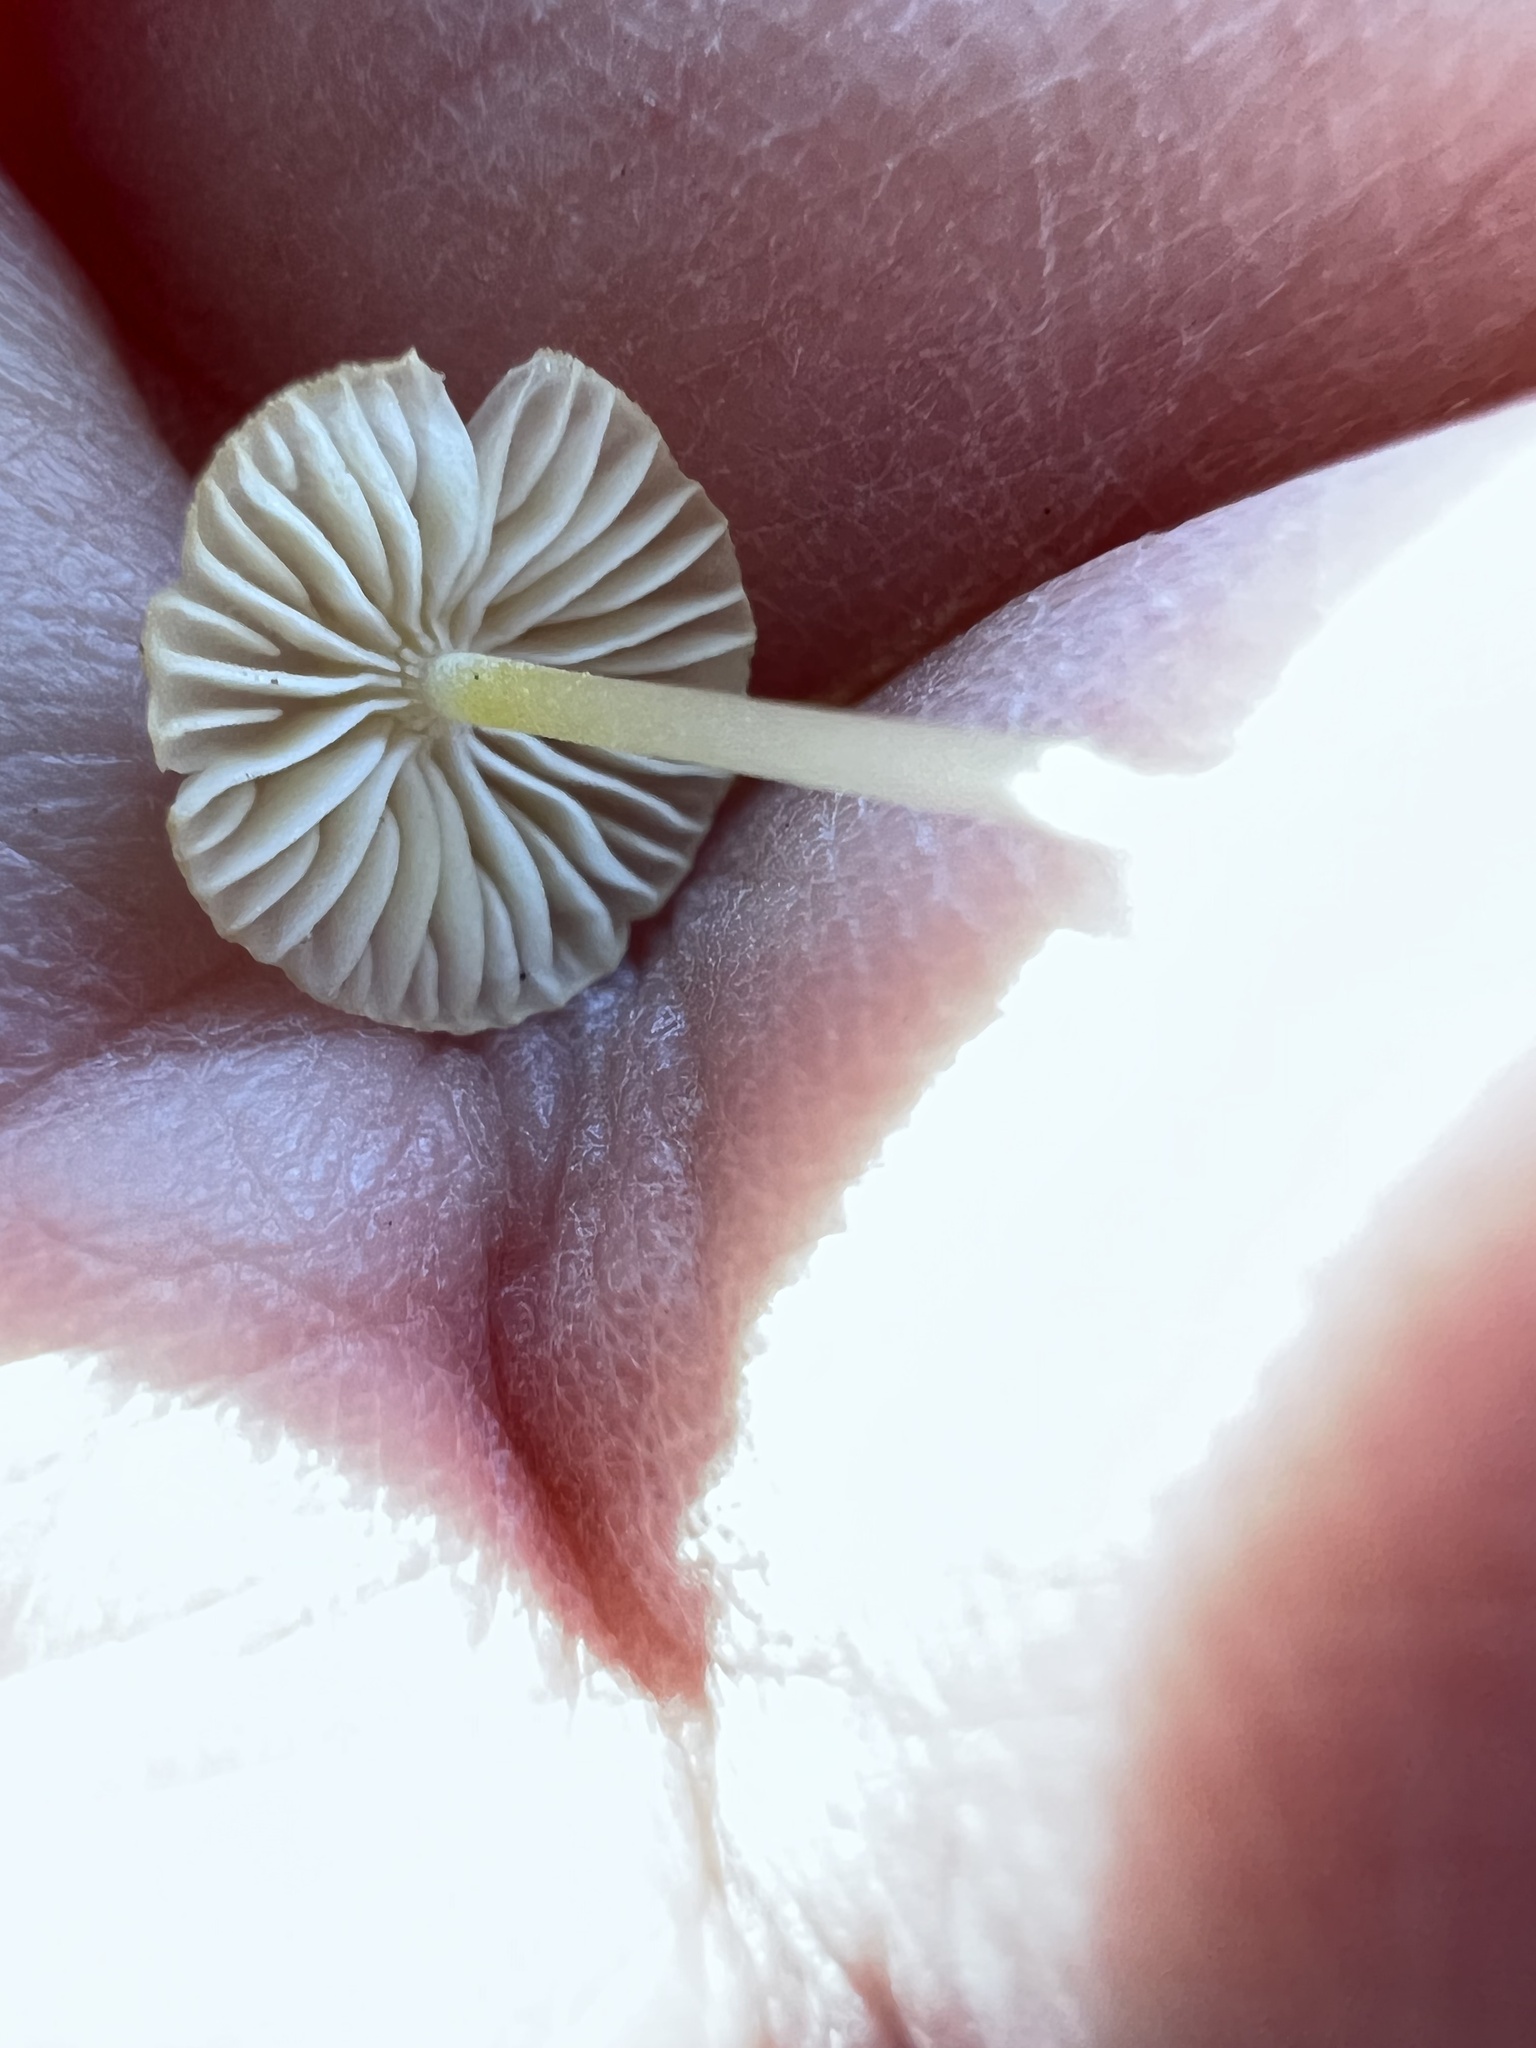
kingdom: Fungi
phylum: Basidiomycota
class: Agaricomycetes
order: Agaricales
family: Mycenaceae
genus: Mycena
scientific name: Mycena crocea
